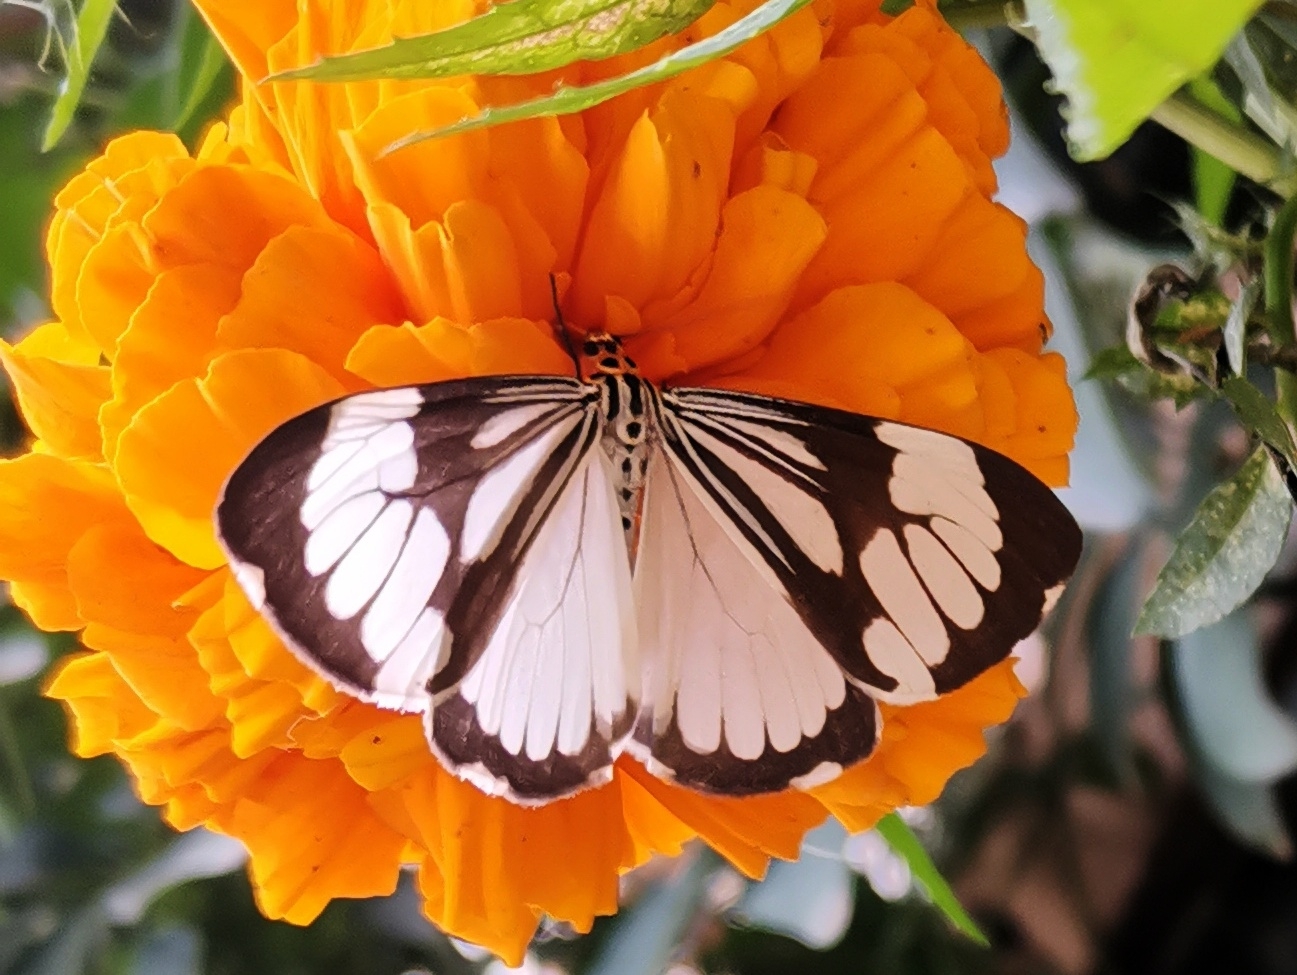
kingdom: Animalia
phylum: Arthropoda
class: Insecta
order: Lepidoptera
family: Erebidae
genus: Nyctemera
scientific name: Nyctemera coleta
